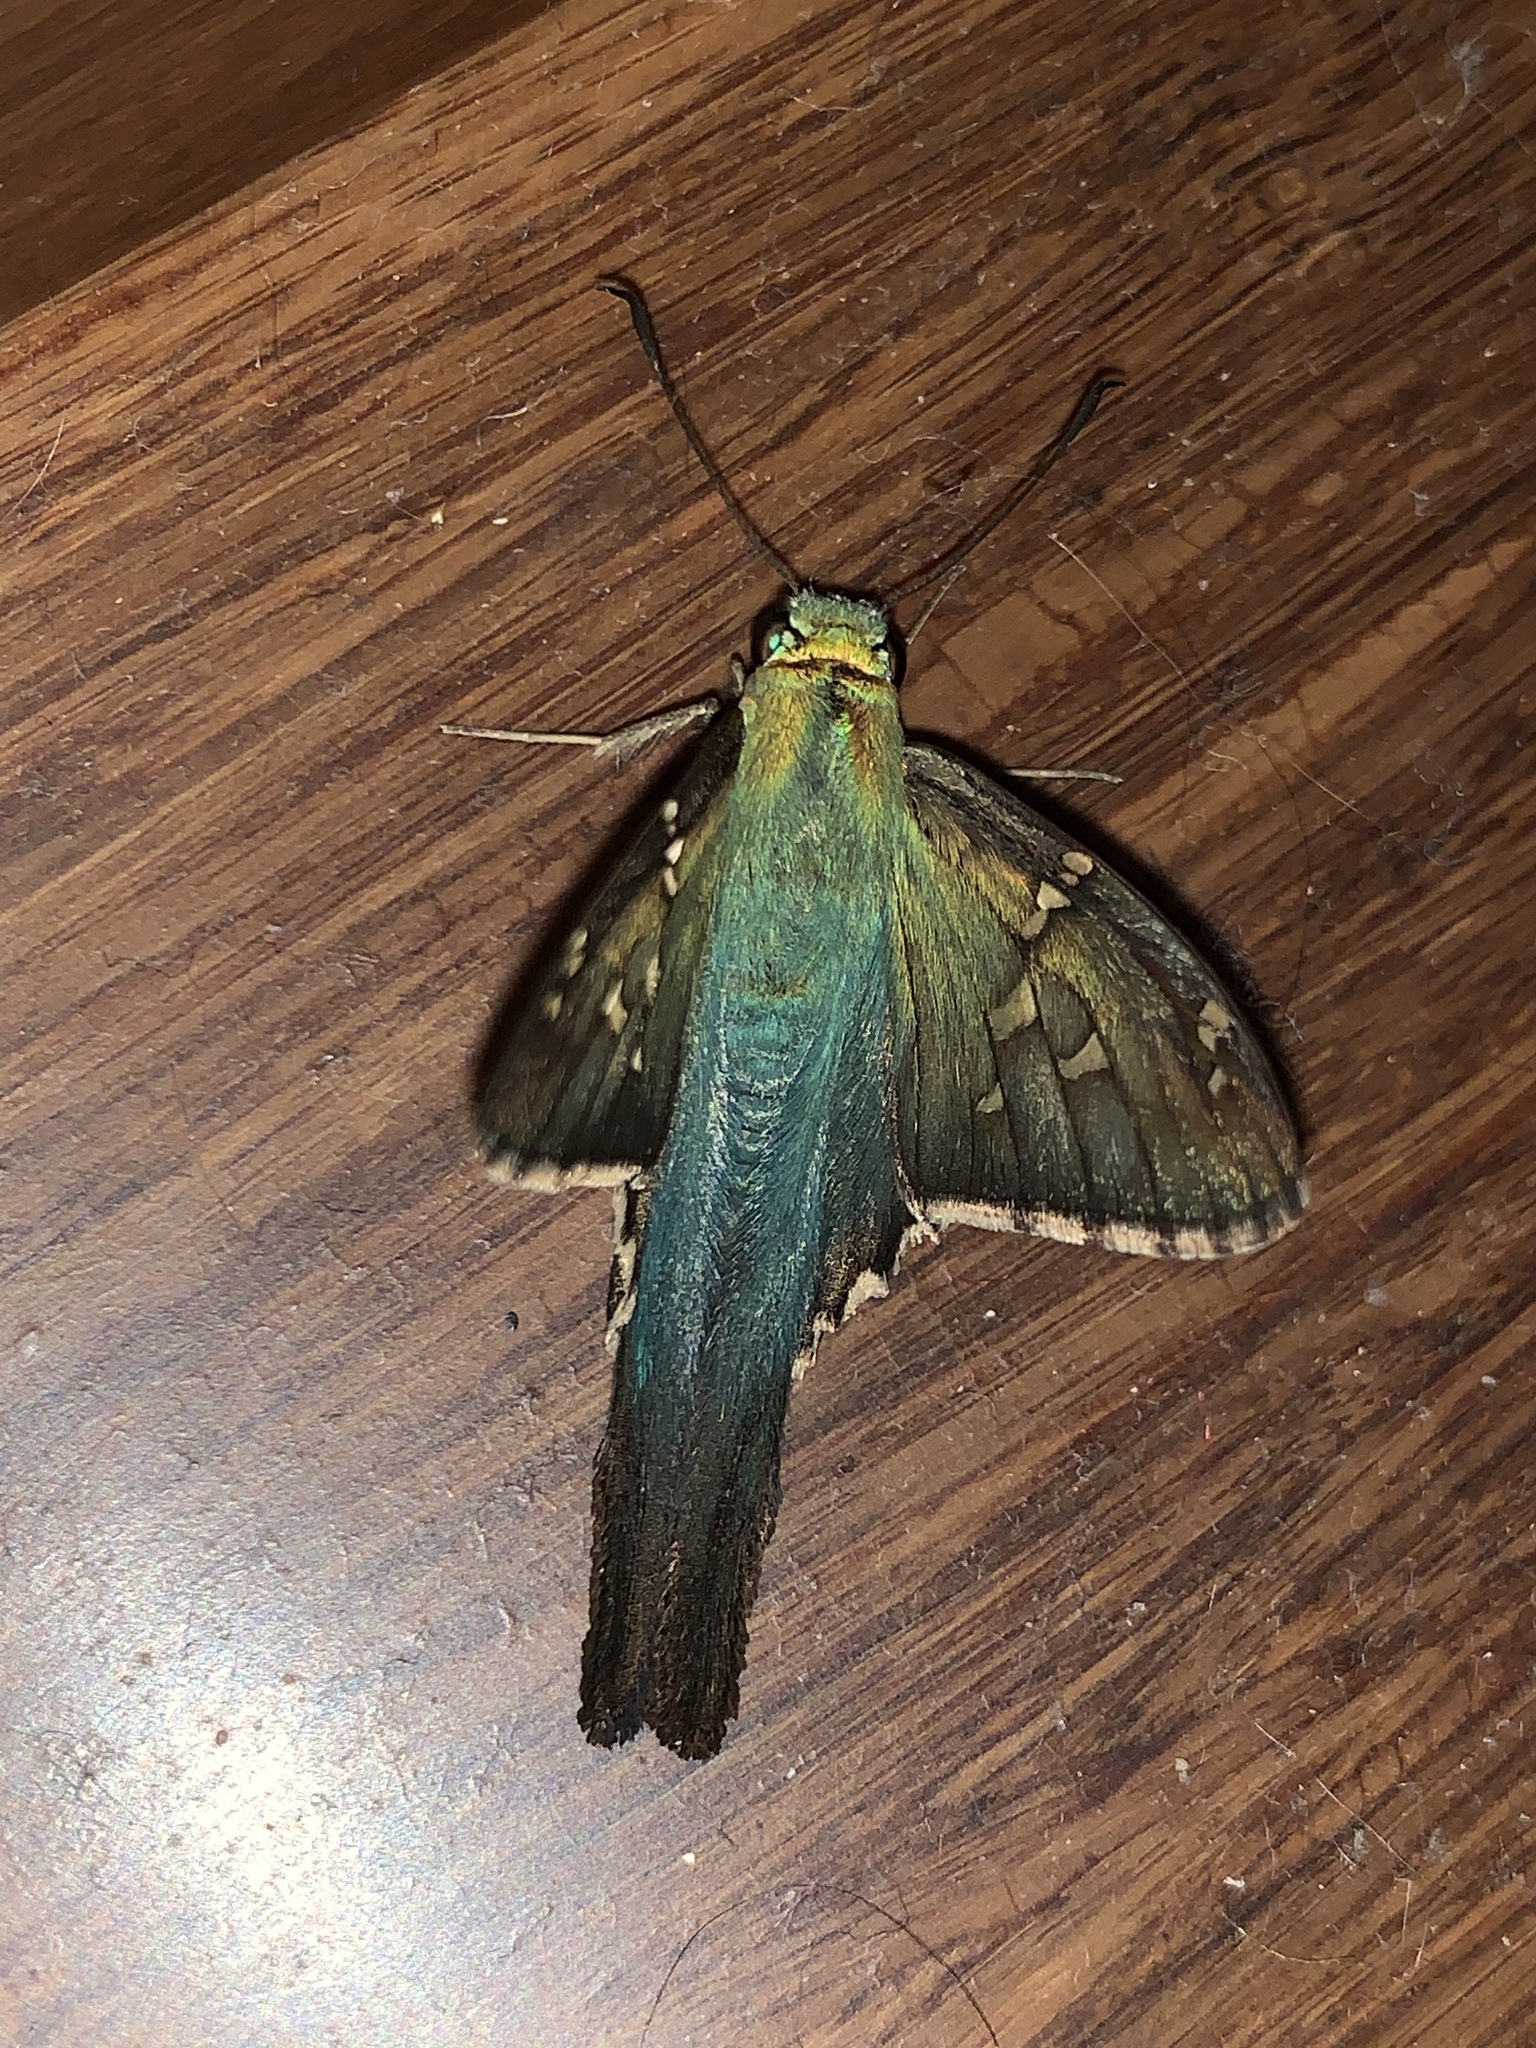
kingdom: Animalia
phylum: Arthropoda
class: Insecta
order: Lepidoptera
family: Hesperiidae
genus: Urbanus
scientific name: Urbanus proteus
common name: Long-tailed skipper
